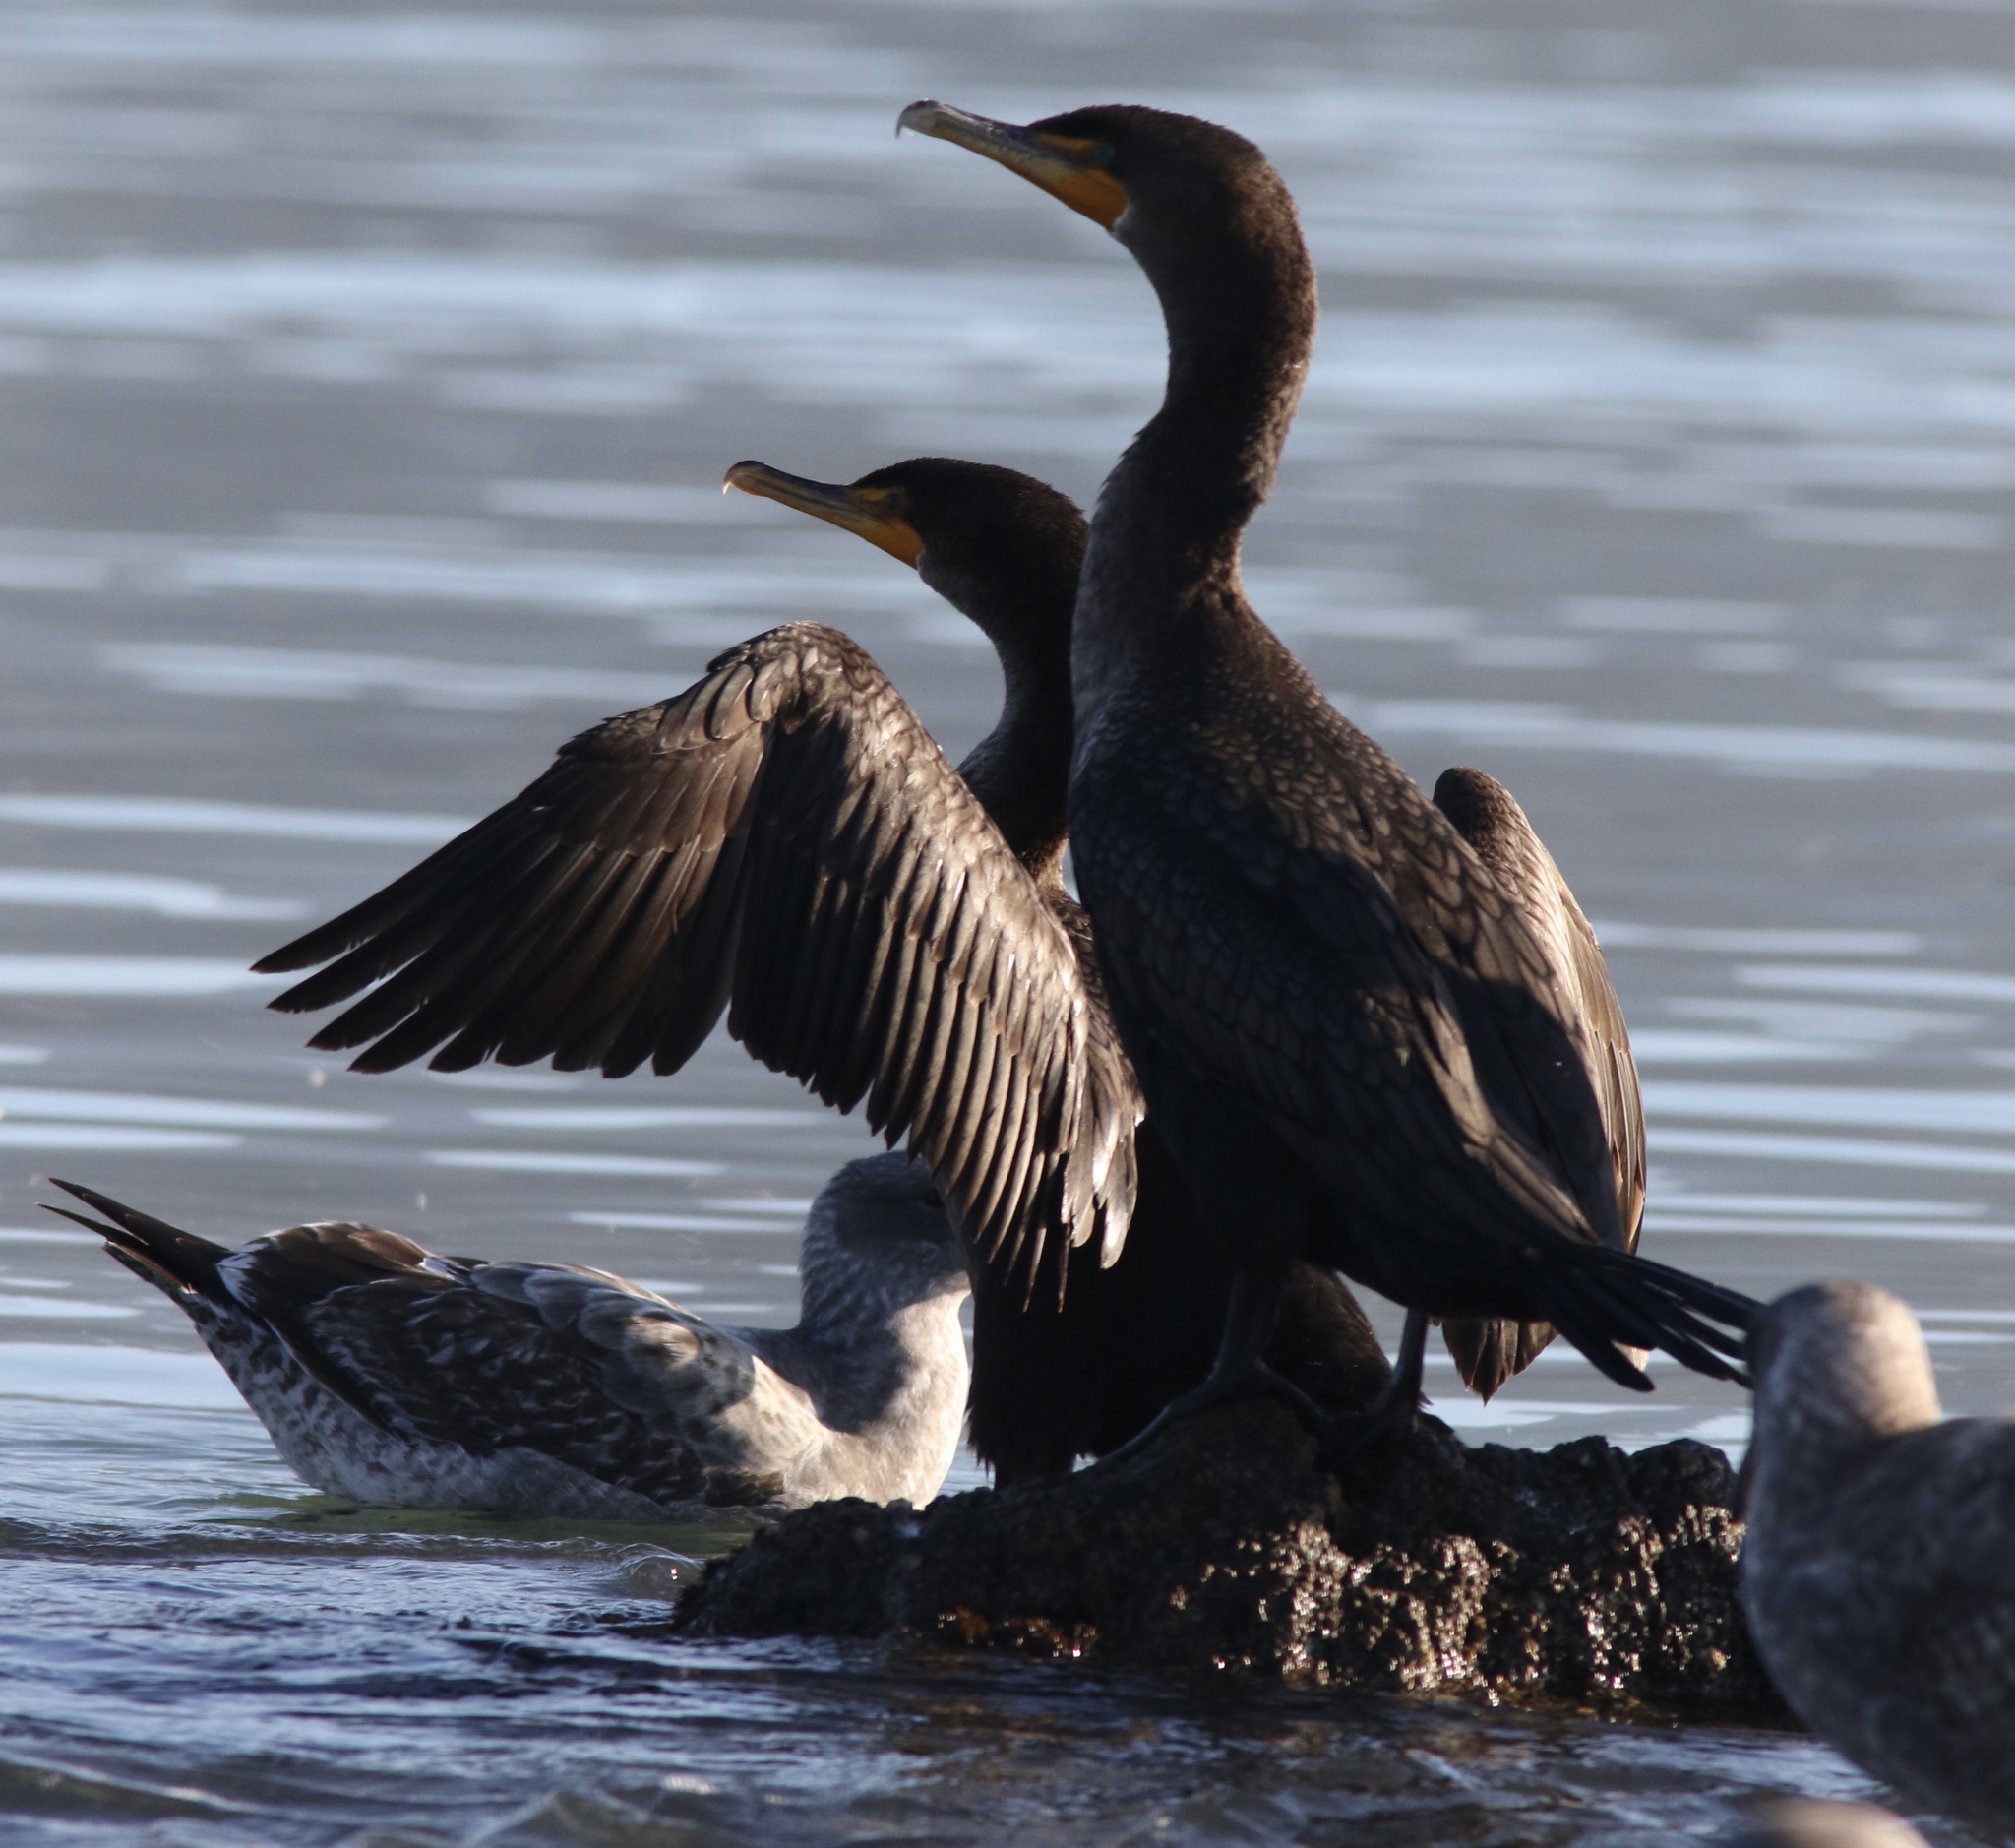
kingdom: Animalia
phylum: Chordata
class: Aves
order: Suliformes
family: Phalacrocoracidae
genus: Phalacrocorax
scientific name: Phalacrocorax auritus
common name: Double-crested cormorant
